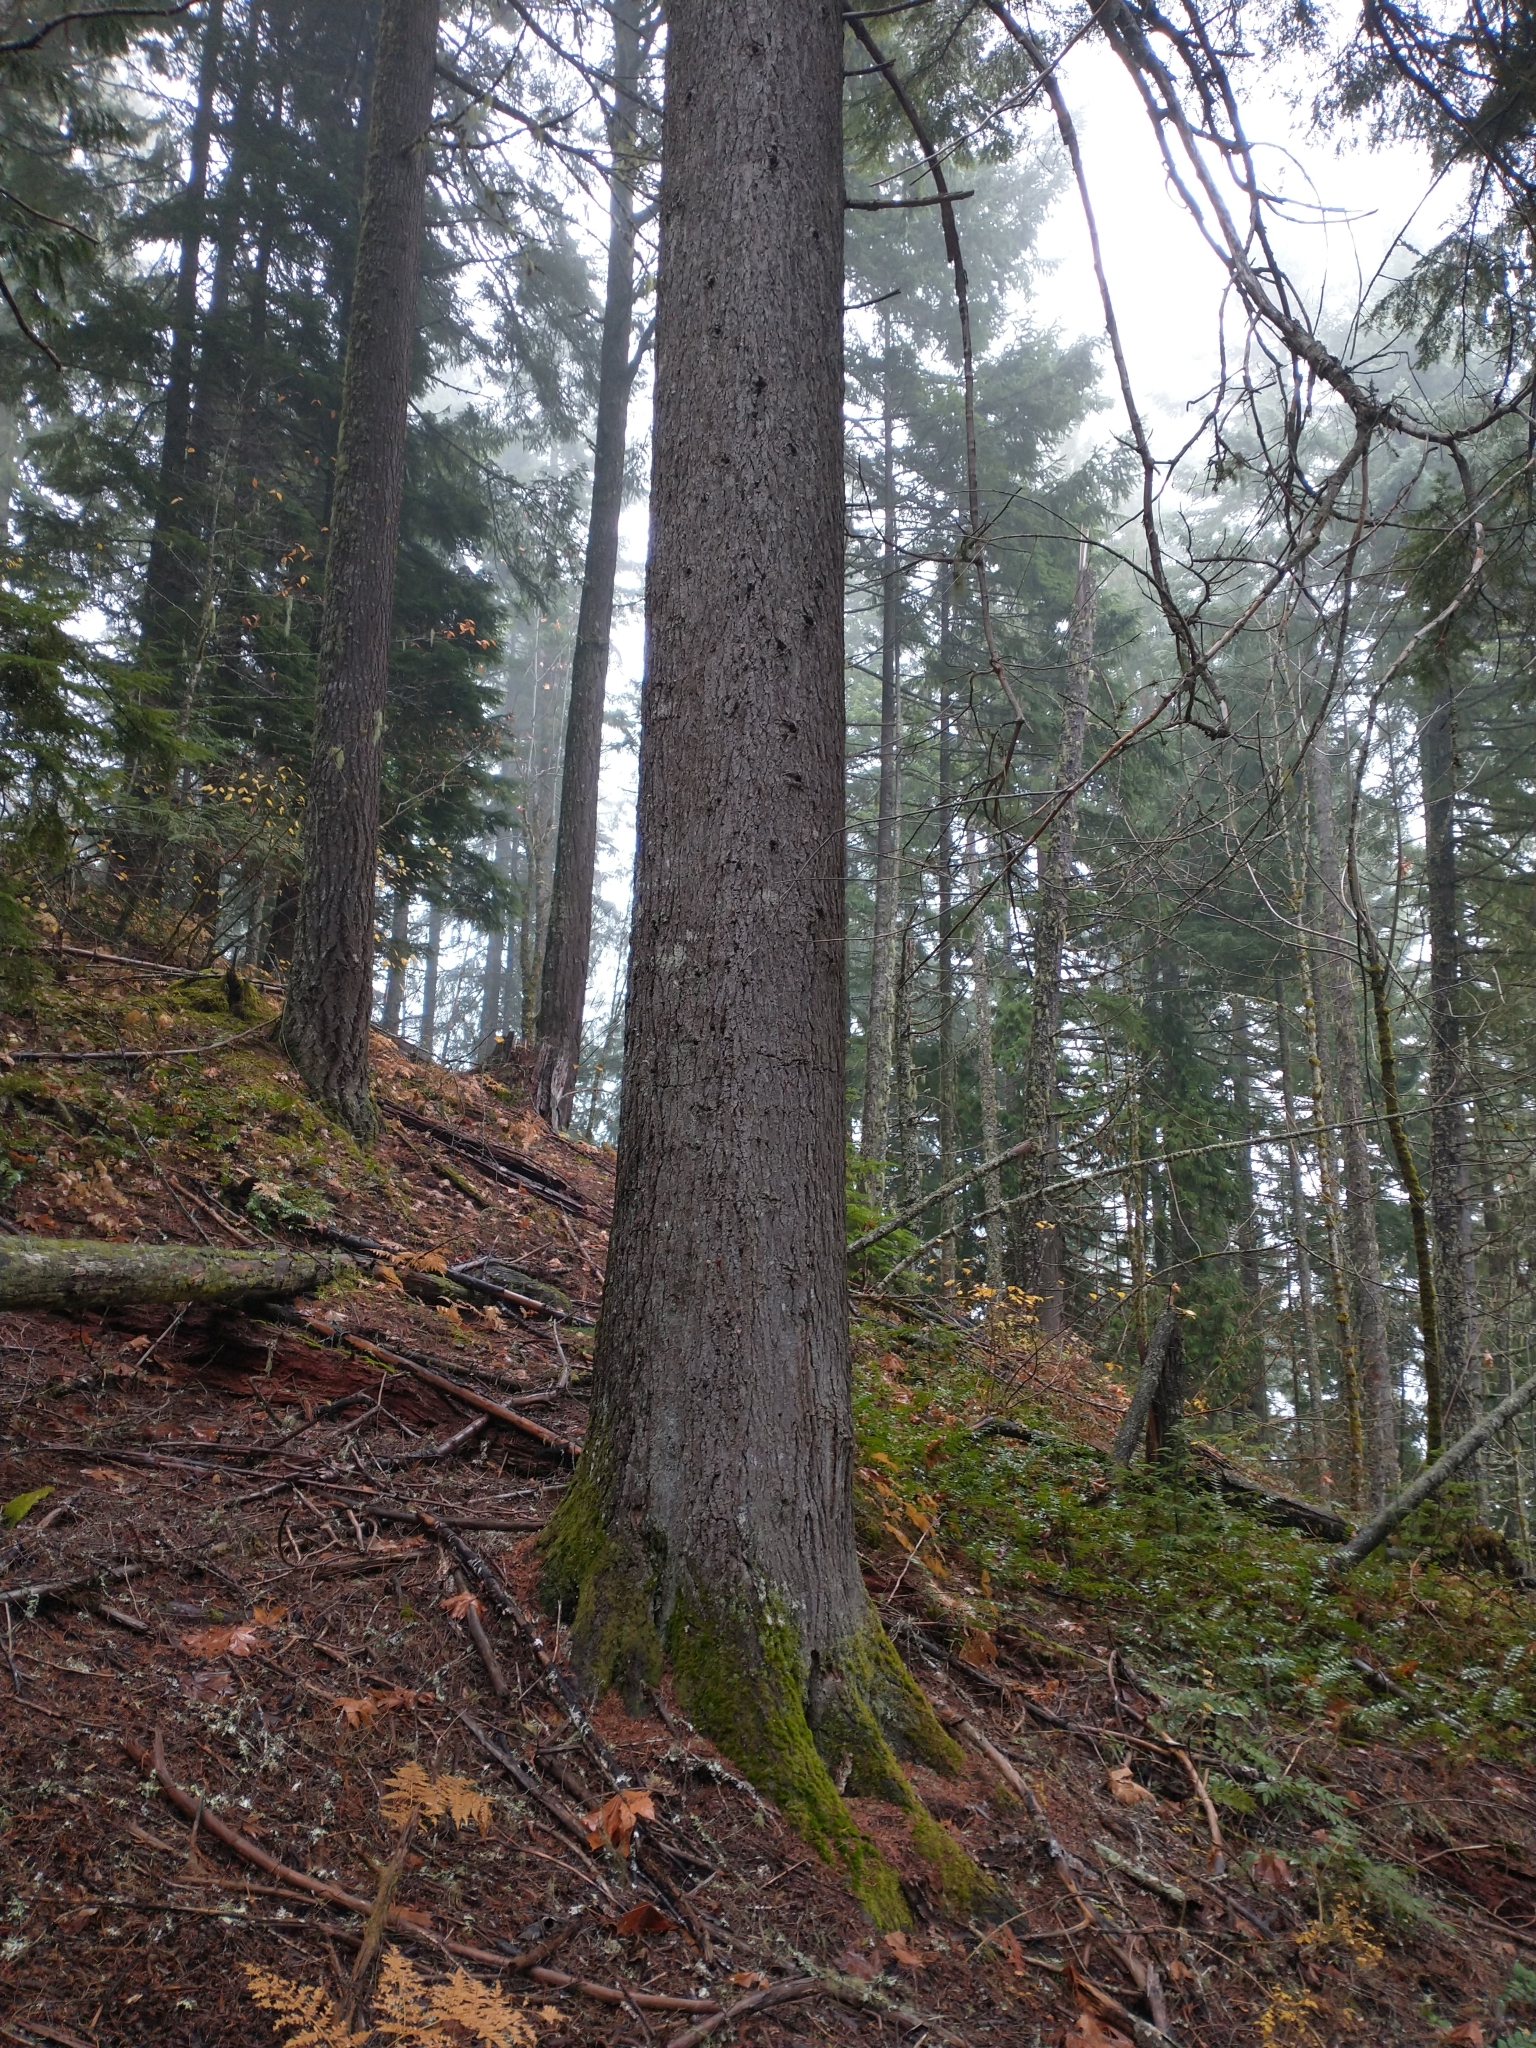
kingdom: Plantae
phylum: Tracheophyta
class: Pinopsida
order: Pinales
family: Pinaceae
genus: Abies
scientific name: Abies grandis
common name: Giant fir
